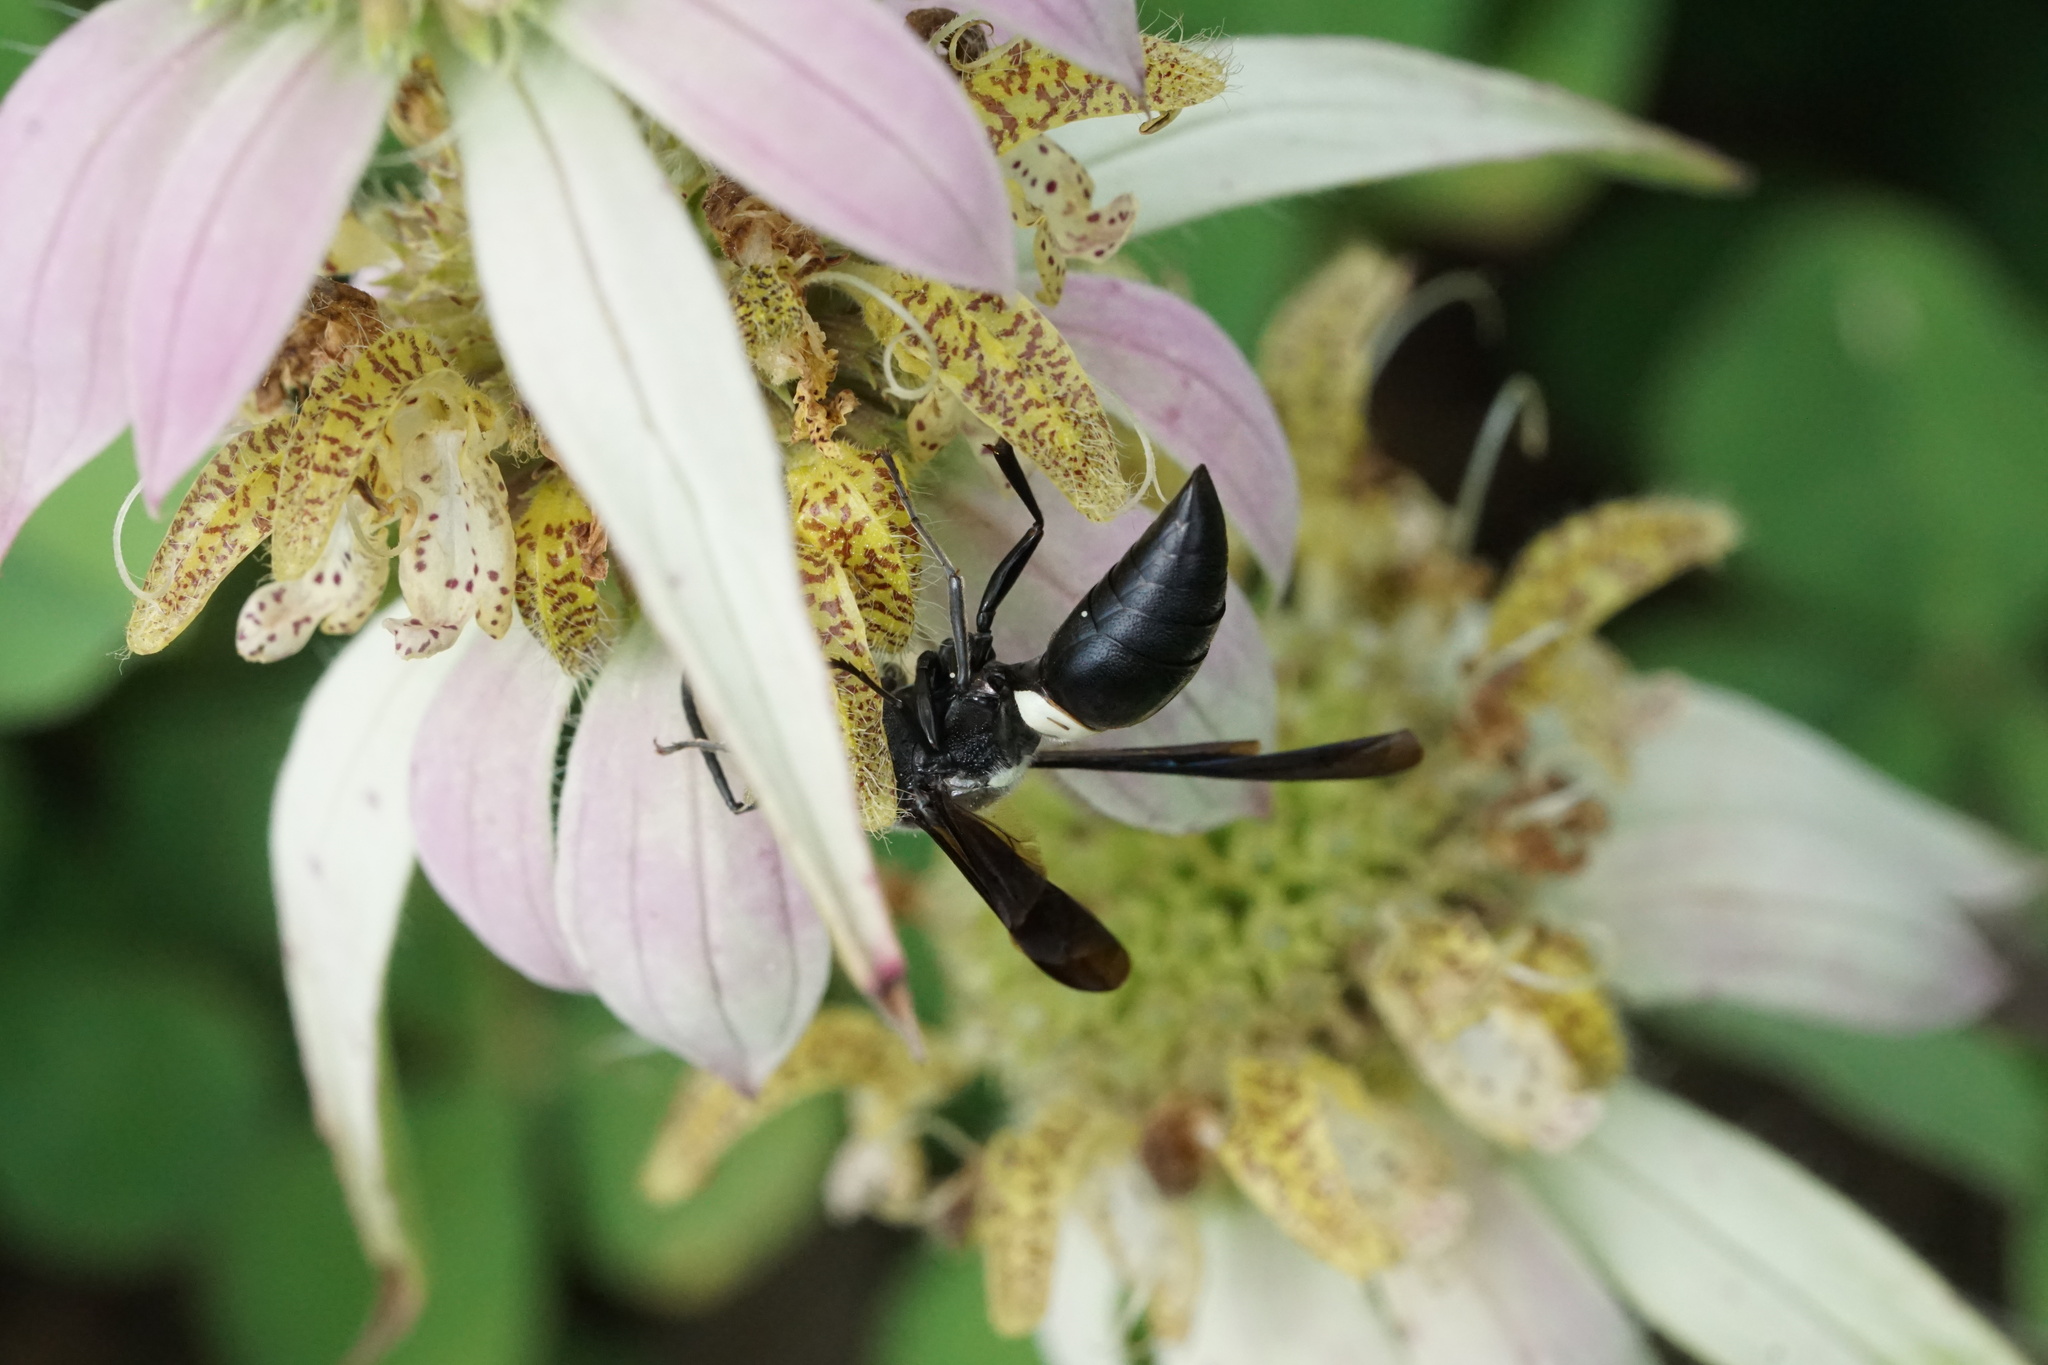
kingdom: Animalia
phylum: Arthropoda
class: Insecta
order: Hymenoptera
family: Eumenidae
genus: Monobia
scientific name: Monobia quadridens
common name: Four-toothed mason wasp
